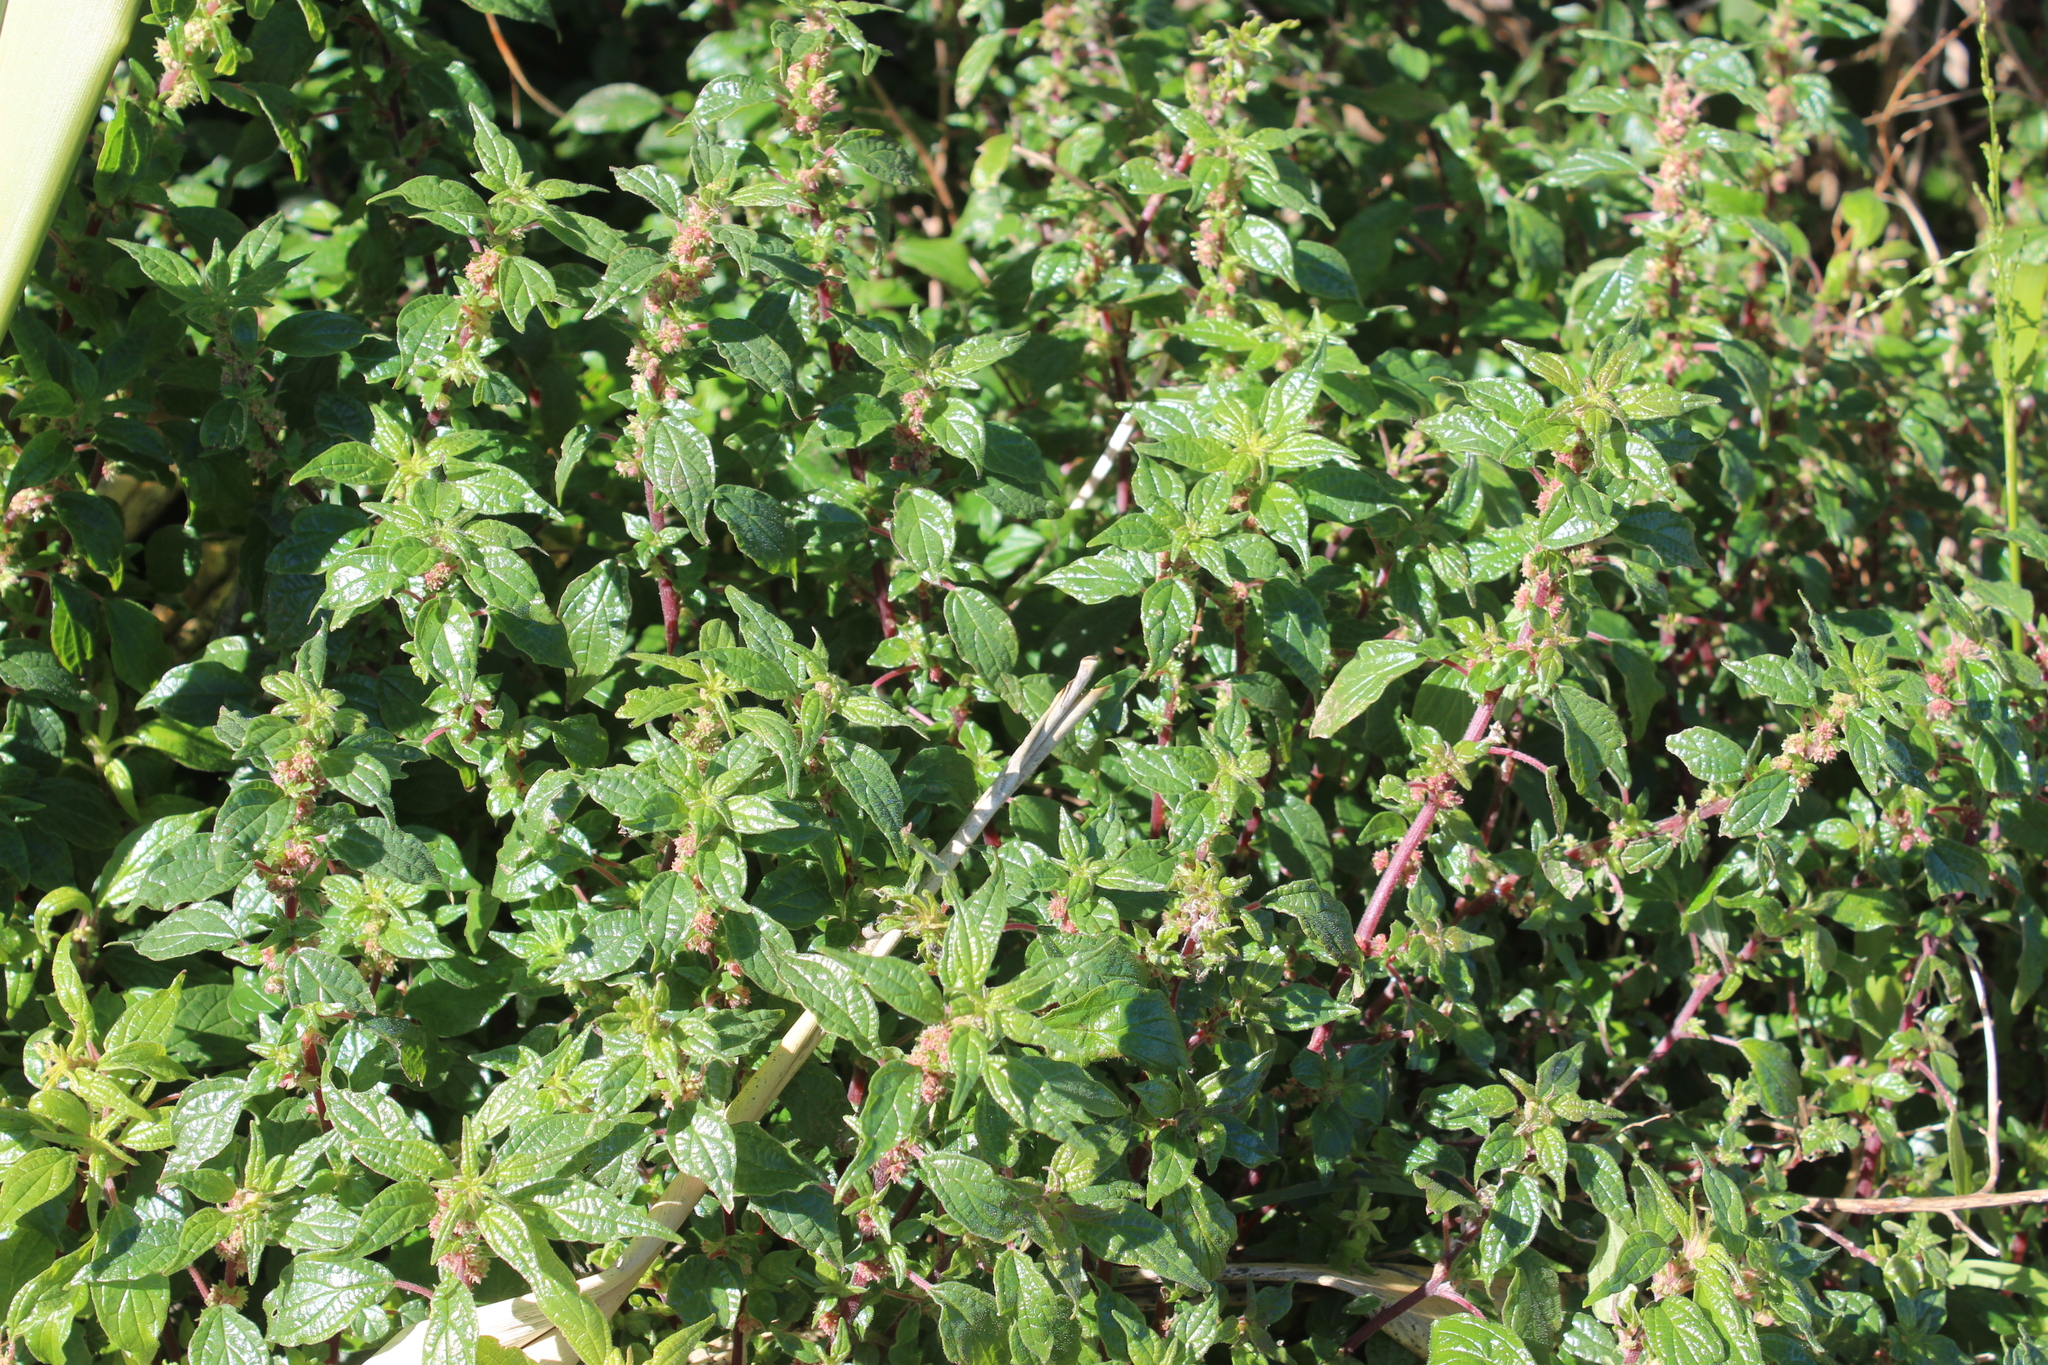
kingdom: Plantae
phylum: Tracheophyta
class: Magnoliopsida
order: Rosales
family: Urticaceae
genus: Parietaria
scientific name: Parietaria judaica
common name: Pellitory-of-the-wall
